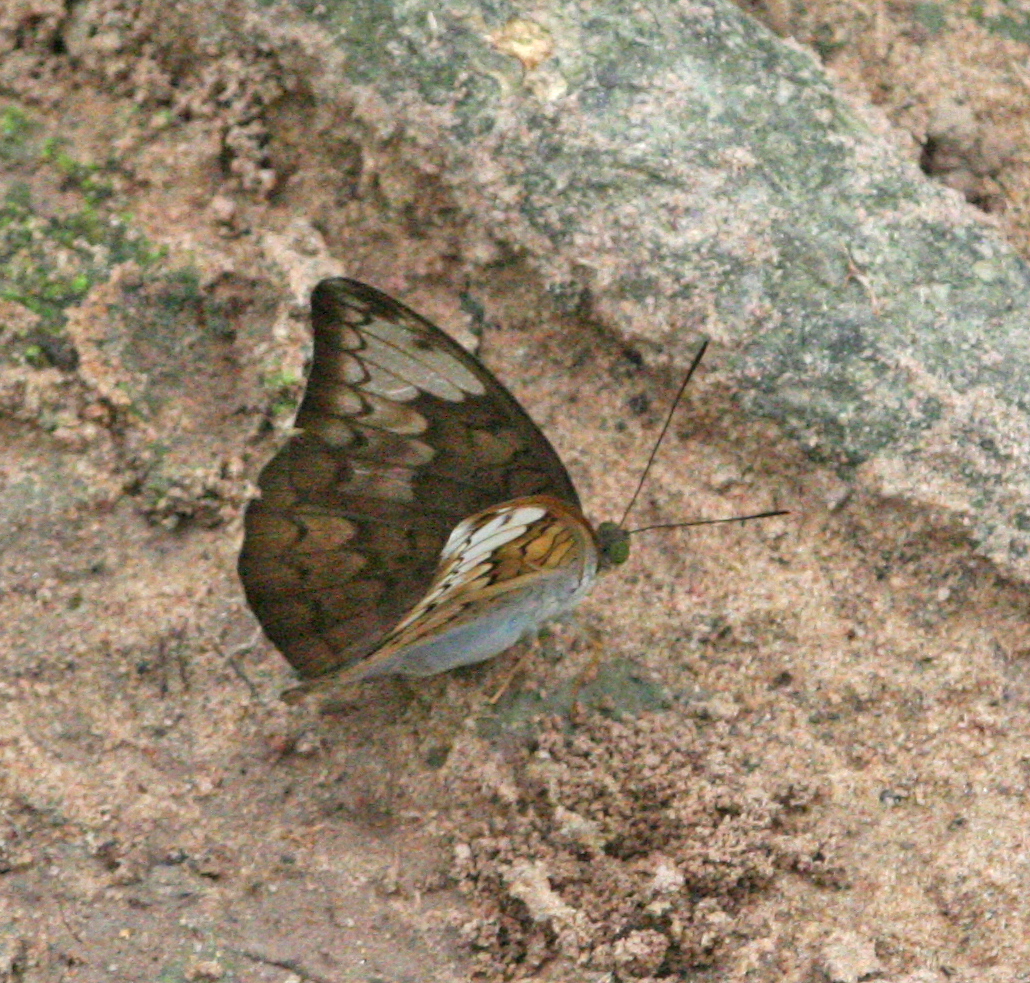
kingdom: Animalia
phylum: Arthropoda
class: Insecta
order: Lepidoptera
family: Nymphalidae
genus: Tanaecia
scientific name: Tanaecia jahnu
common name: Plain earl
